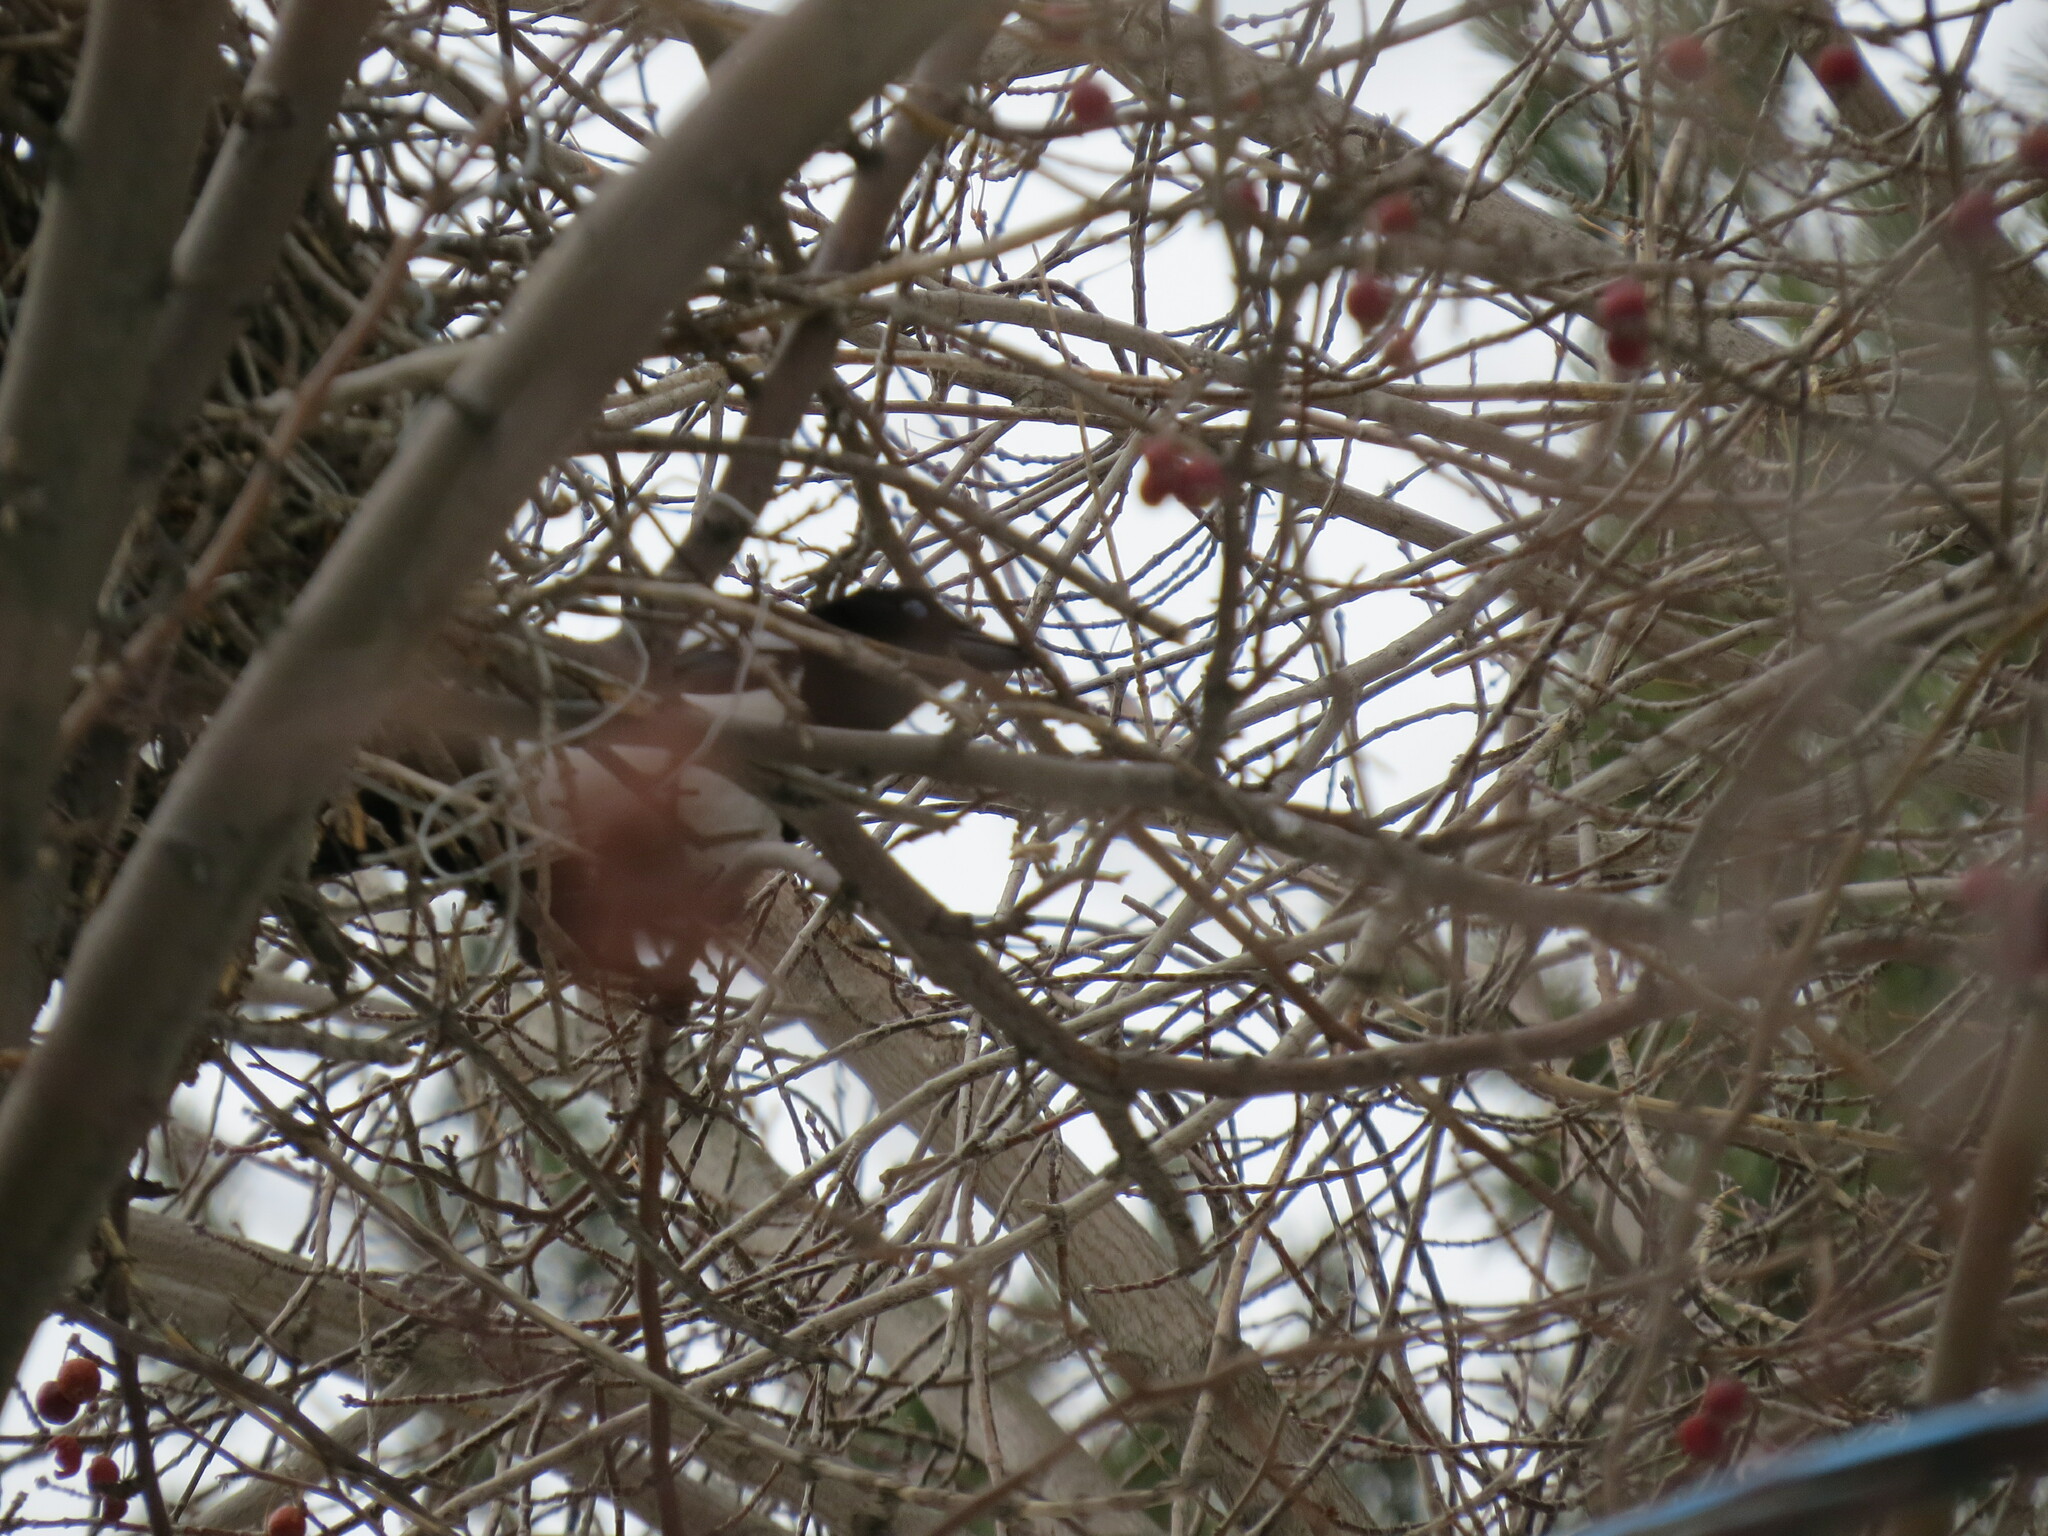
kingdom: Animalia
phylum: Chordata
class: Aves
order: Passeriformes
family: Corvidae
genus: Pica
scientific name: Pica pica
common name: Eurasian magpie
